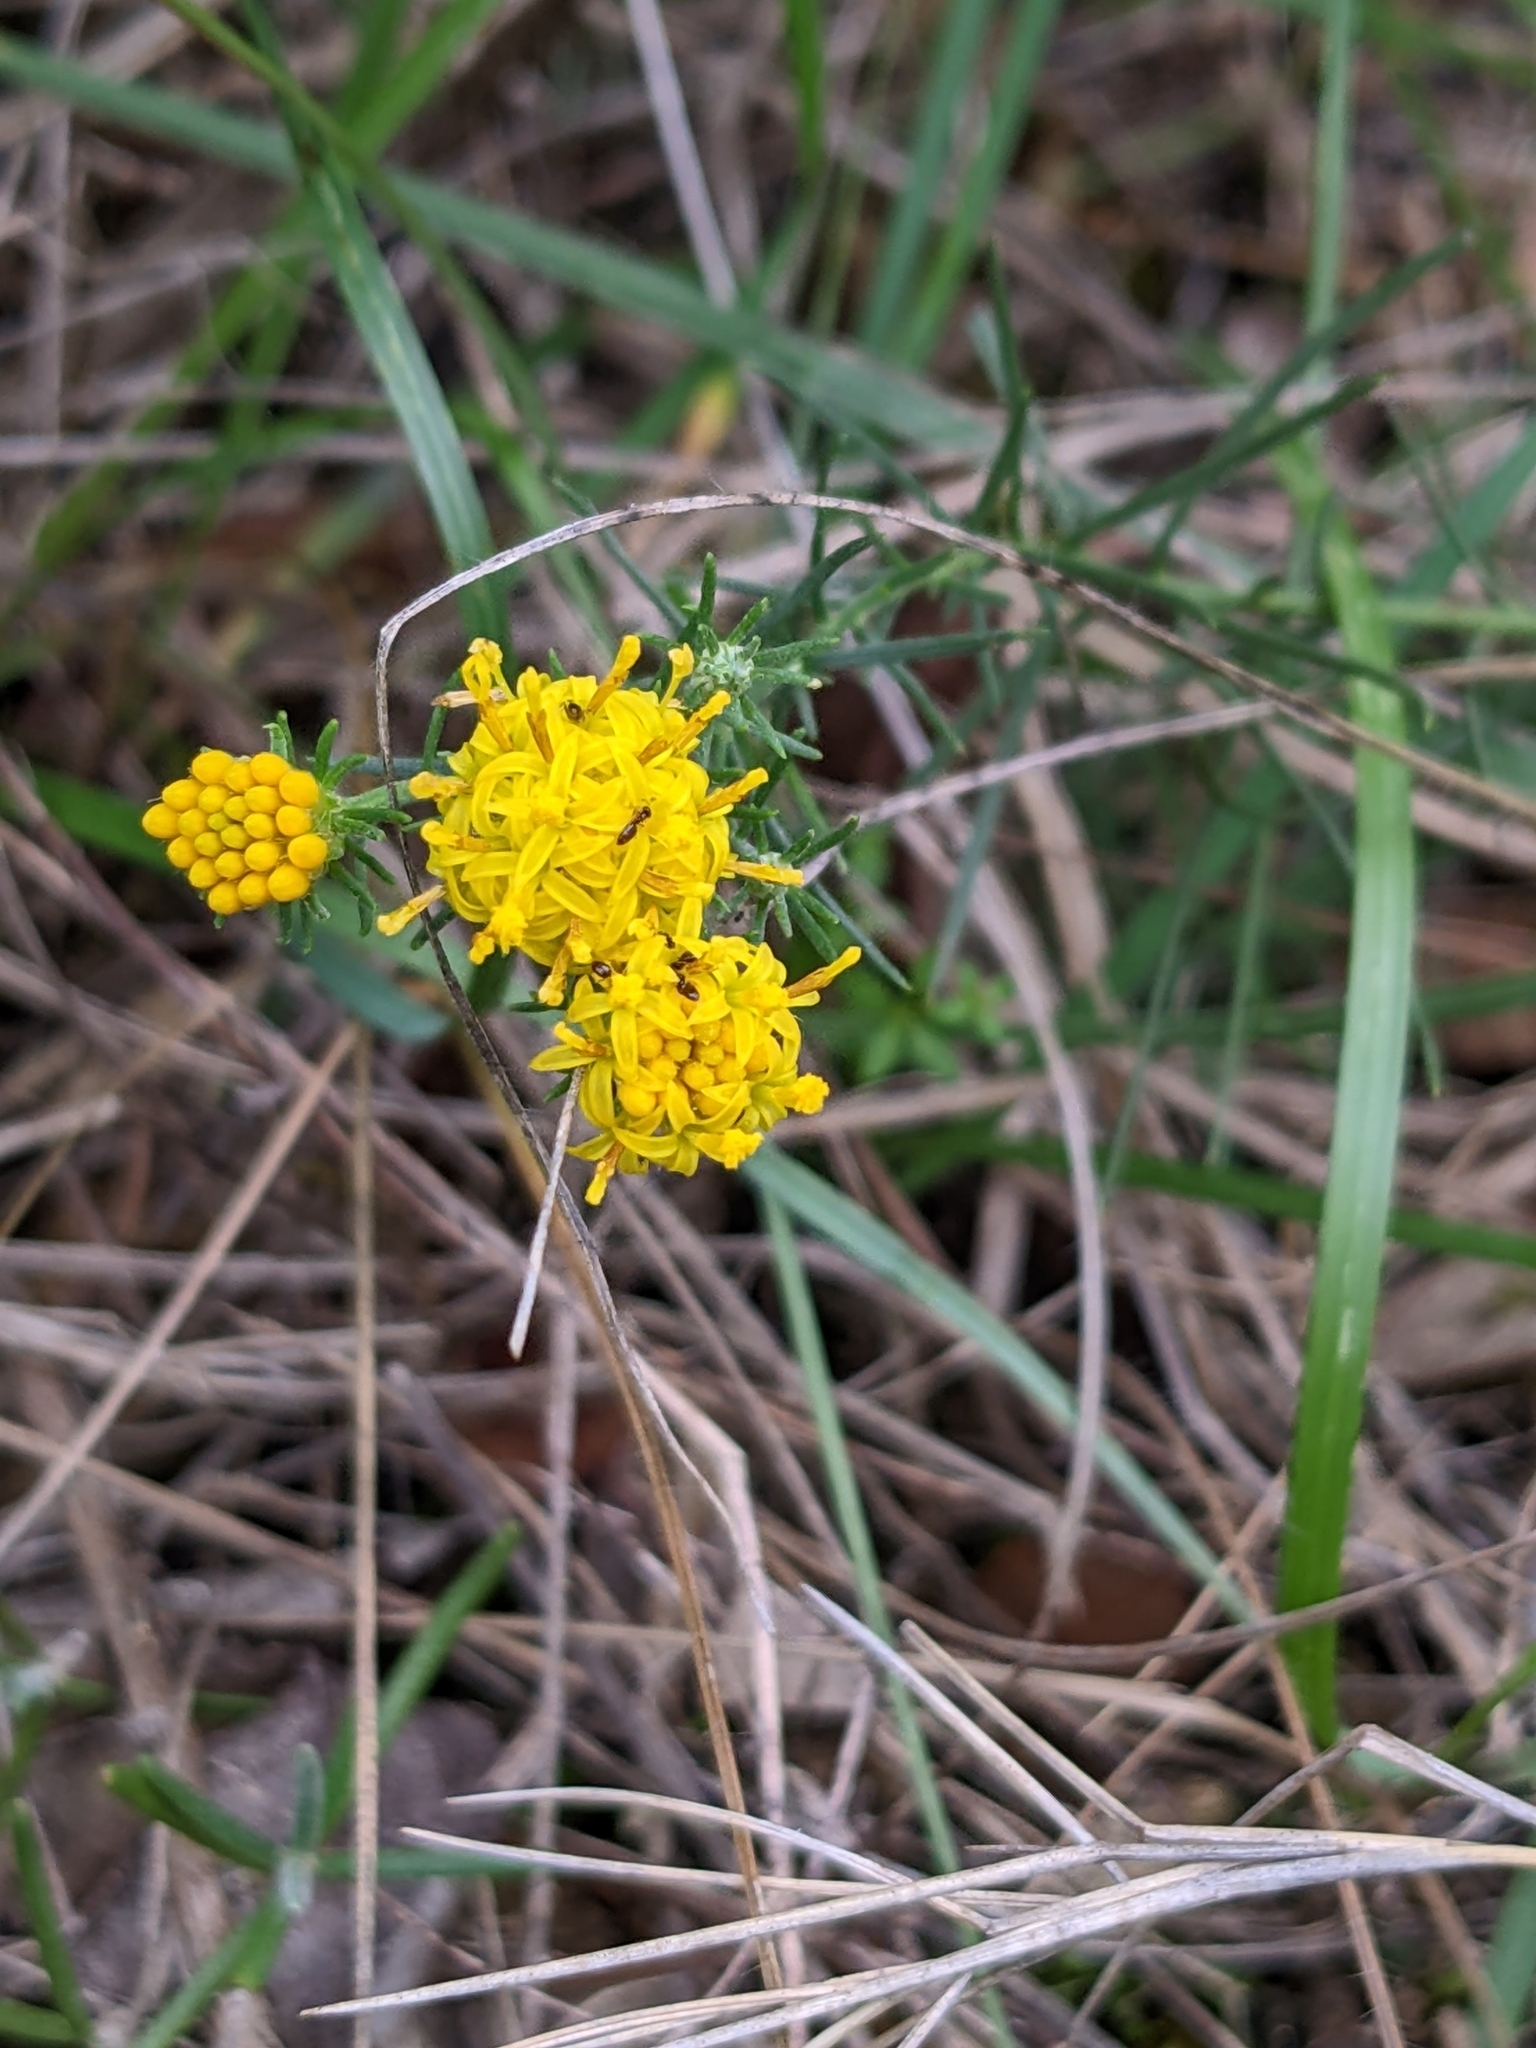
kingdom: Plantae
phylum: Tracheophyta
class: Magnoliopsida
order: Asterales
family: Asteraceae
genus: Galatella
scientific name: Galatella linosyris
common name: Goldilocks aster
